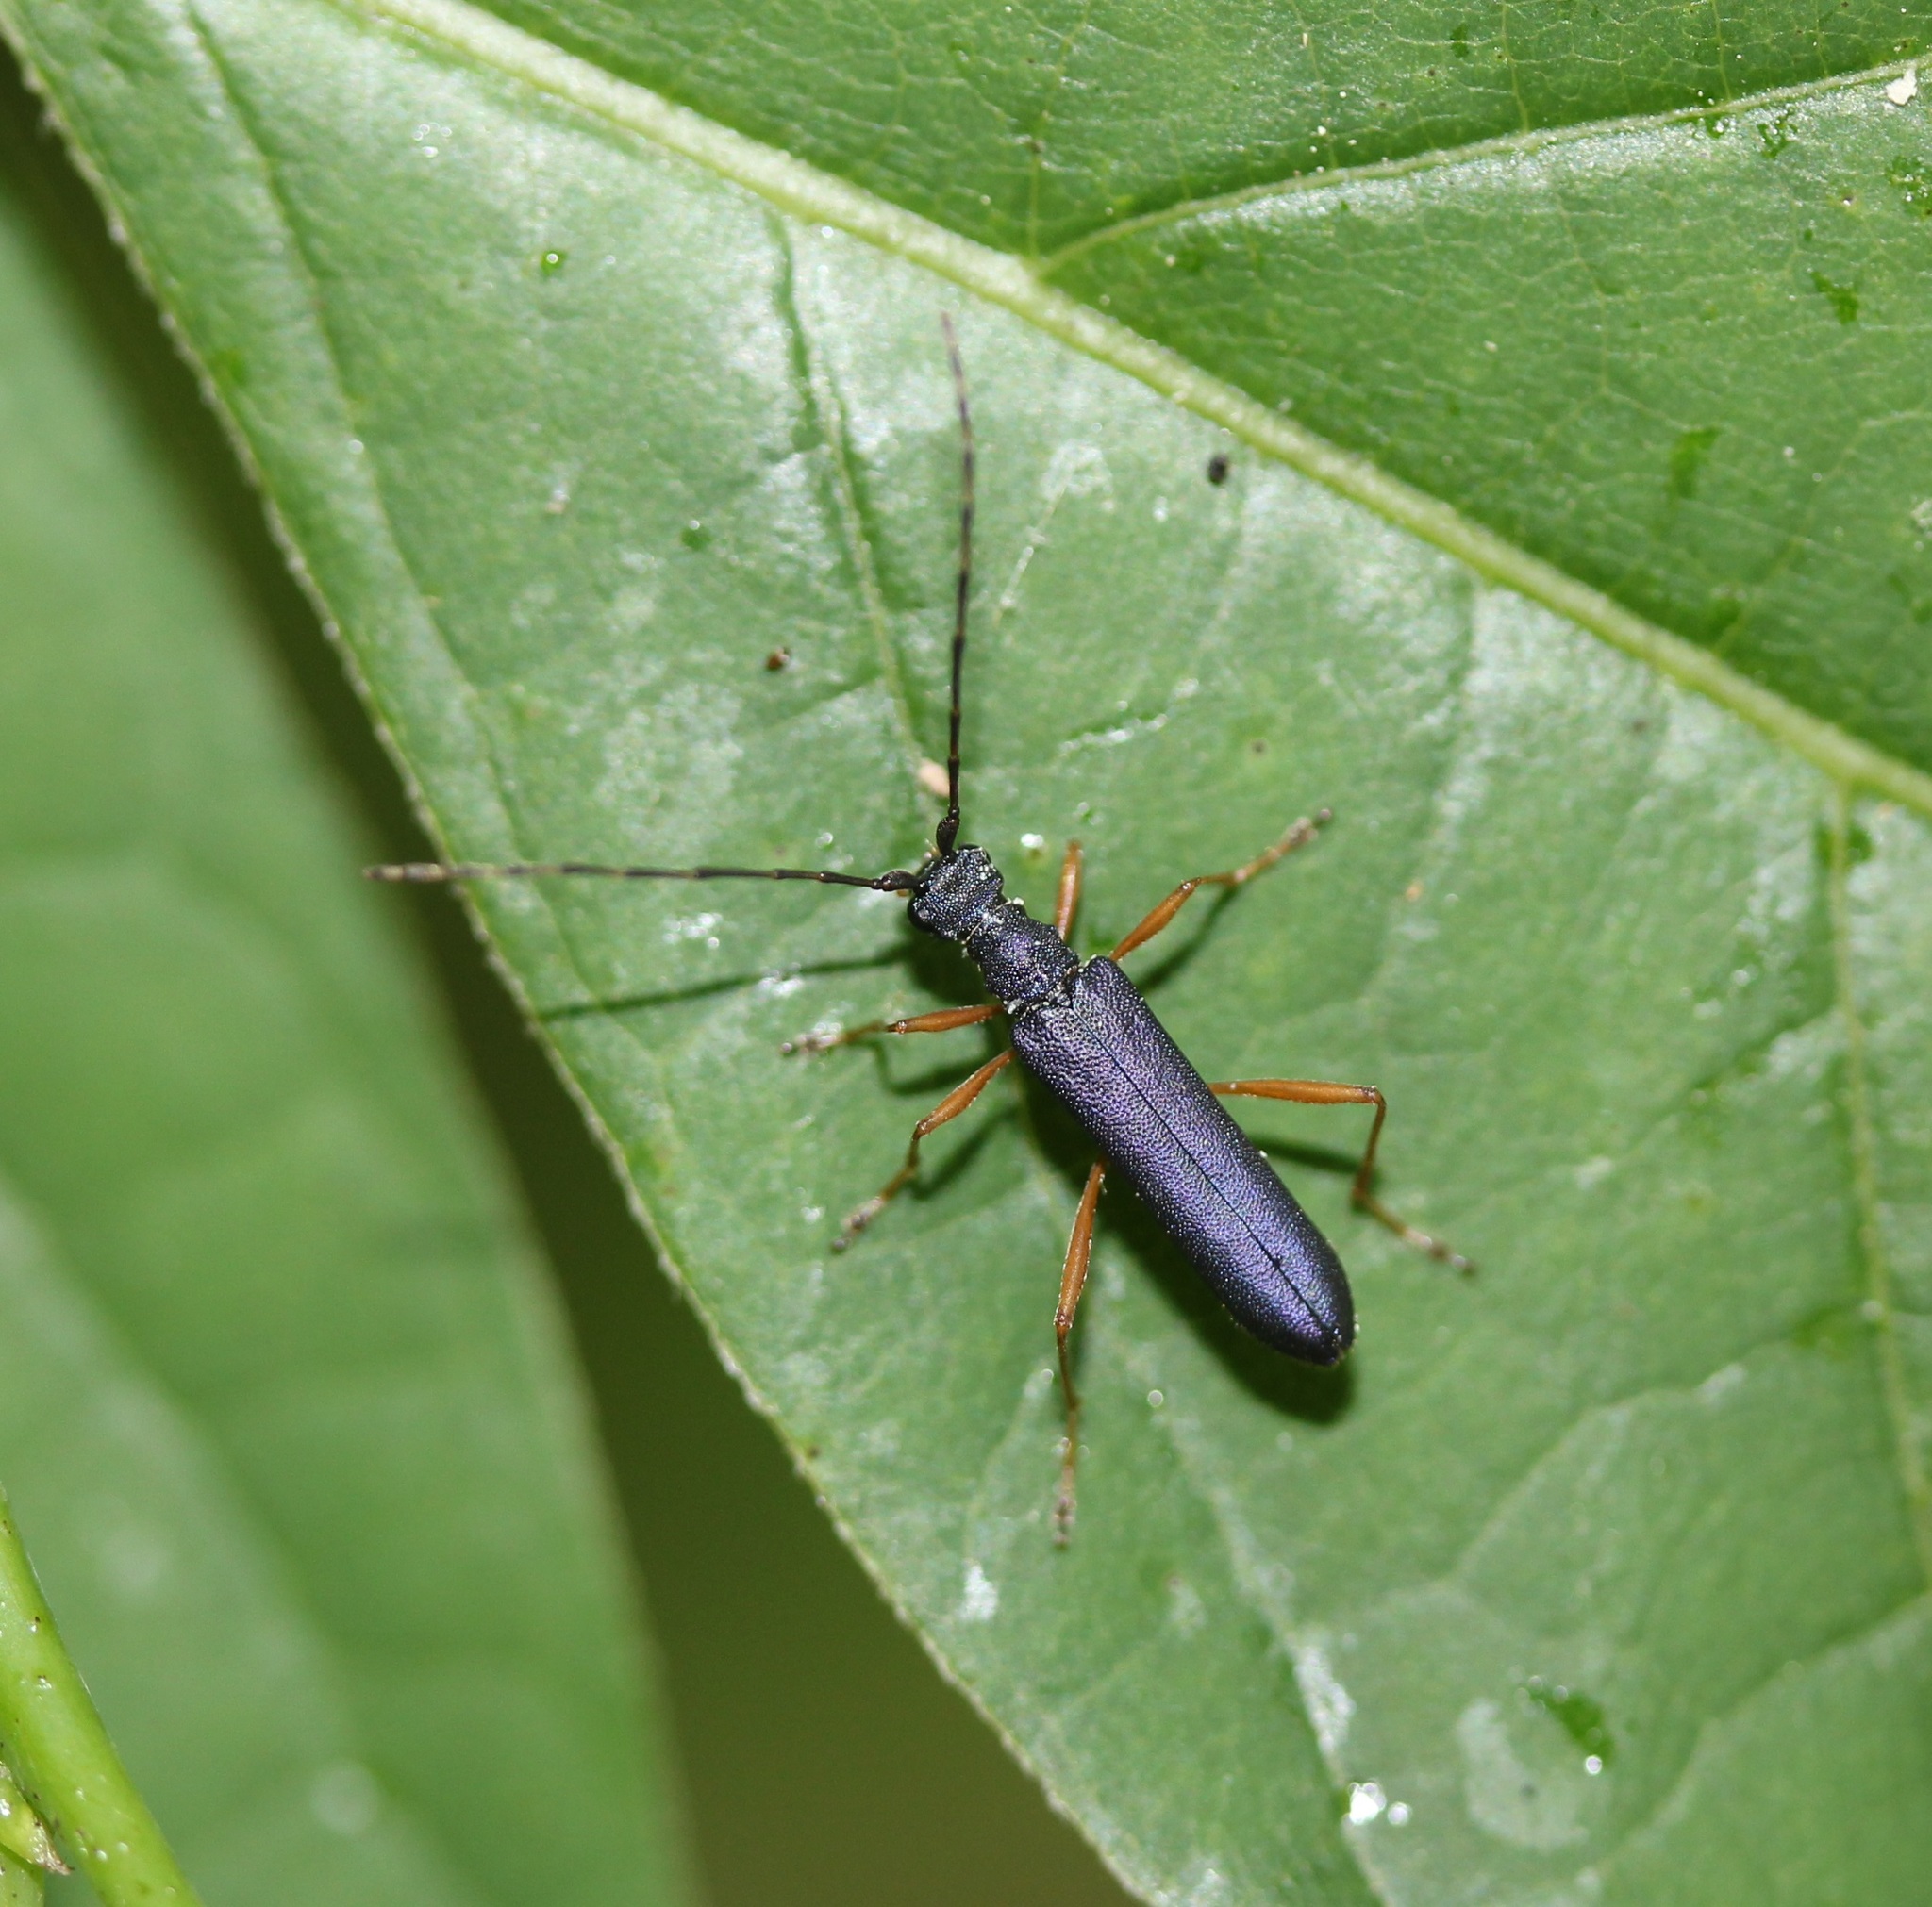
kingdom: Animalia
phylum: Arthropoda
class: Insecta
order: Coleoptera
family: Cerambycidae
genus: Encyclops
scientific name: Encyclops caerulea
